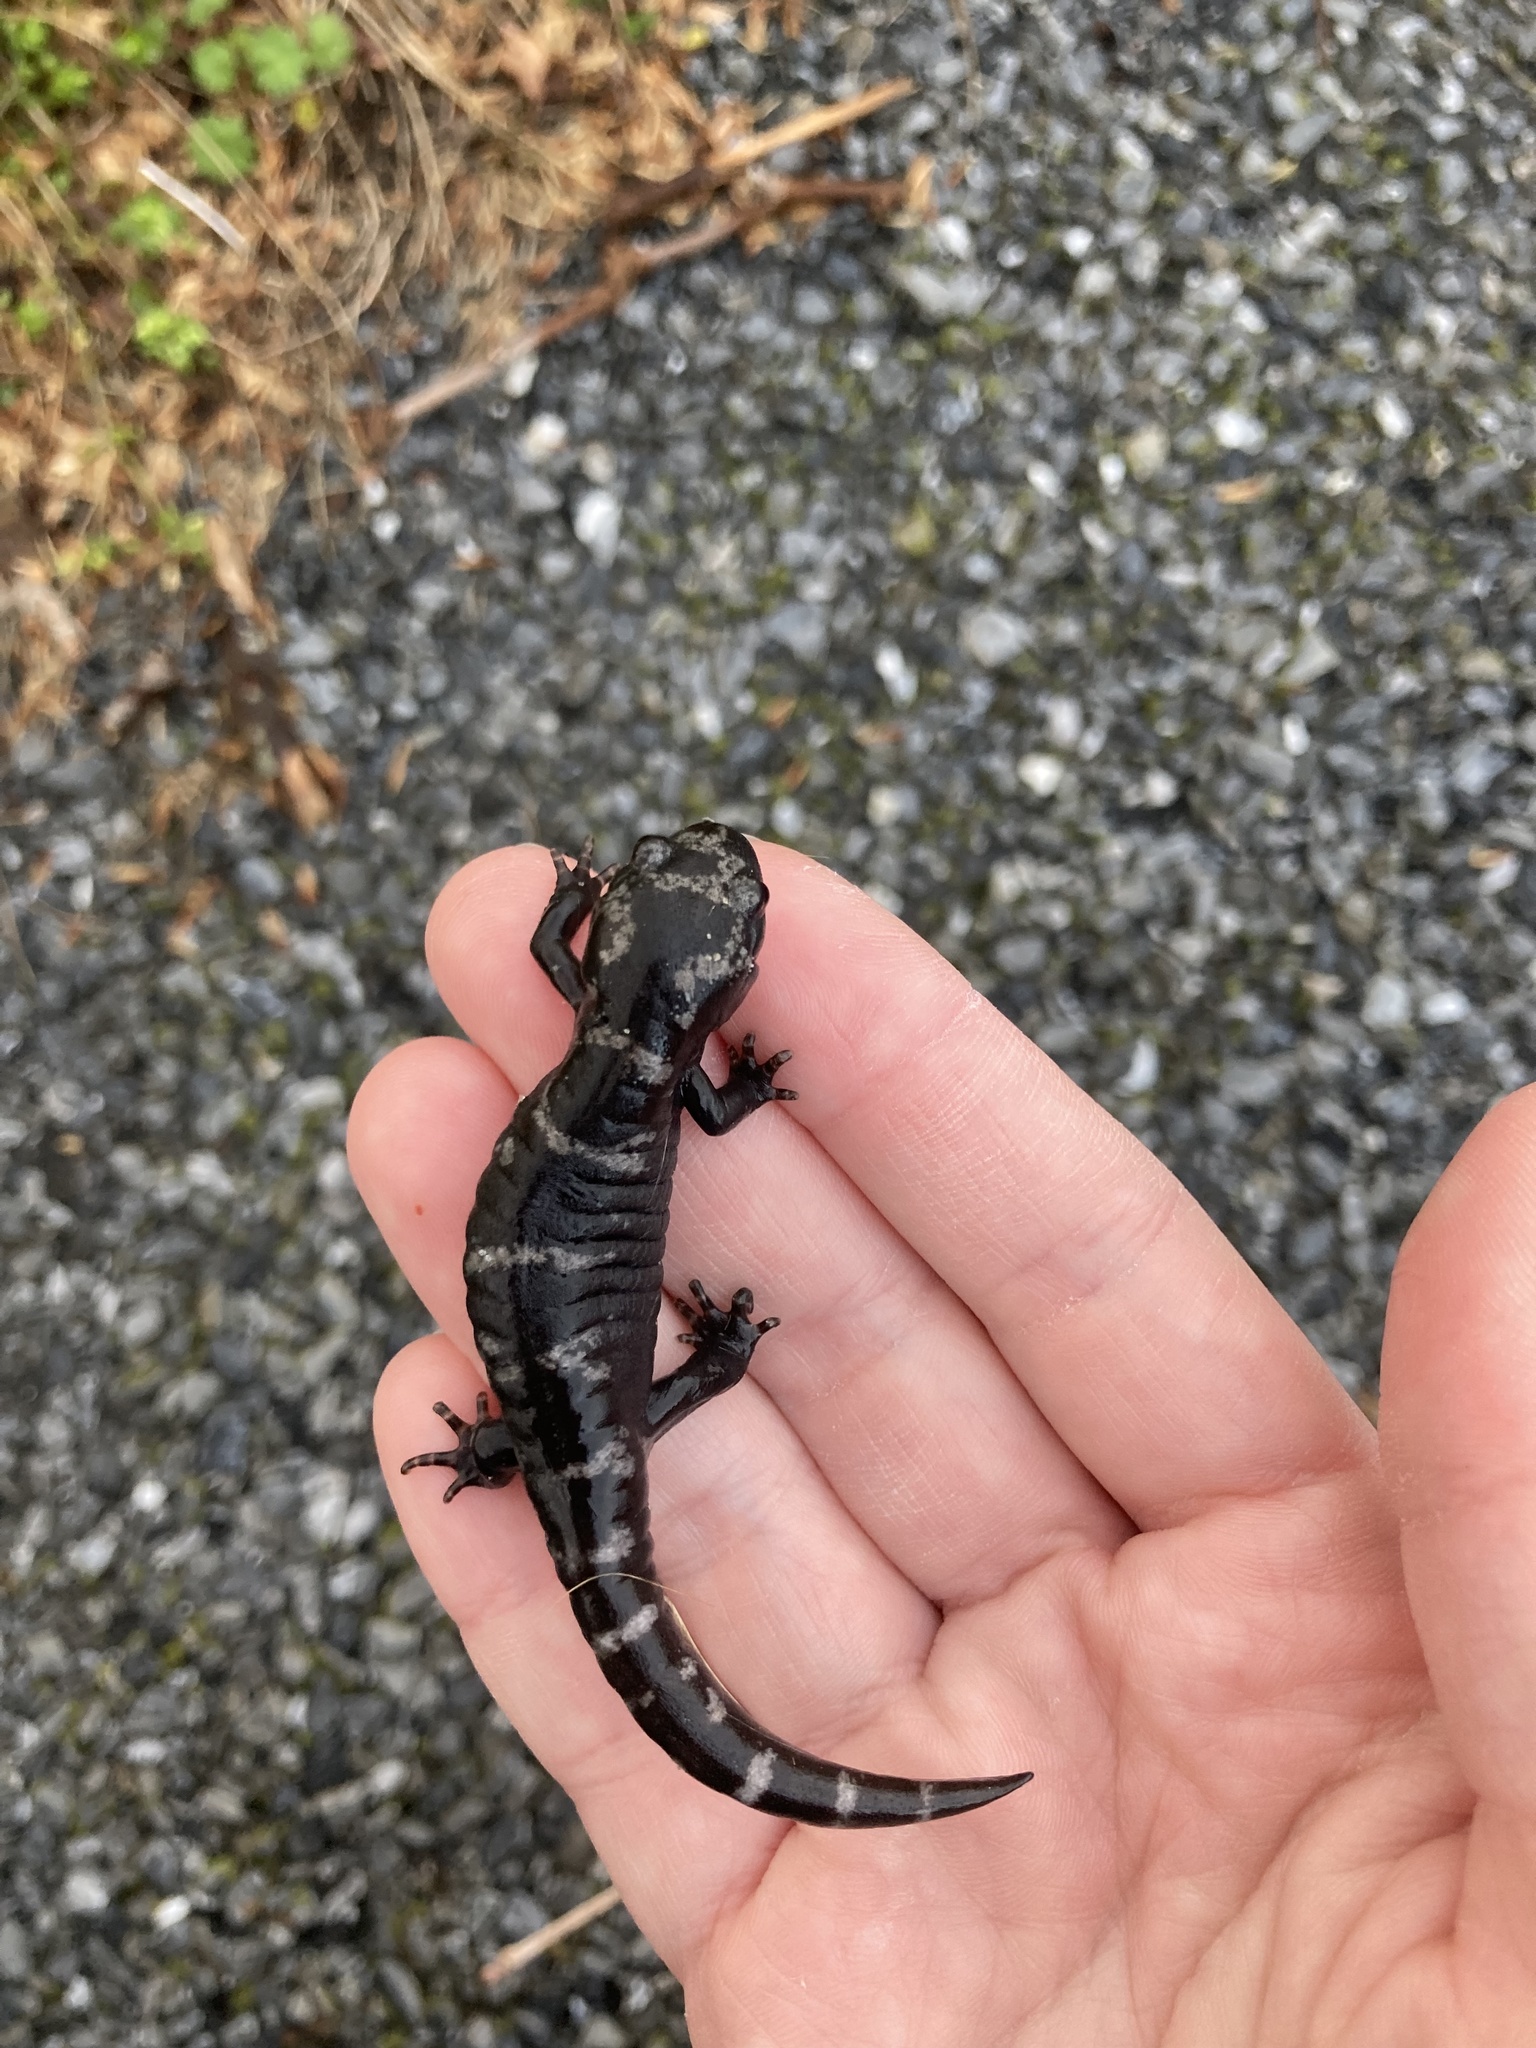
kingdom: Animalia
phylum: Chordata
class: Amphibia
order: Caudata
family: Ambystomatidae
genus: Ambystoma
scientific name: Ambystoma opacum
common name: Marbled salamander
